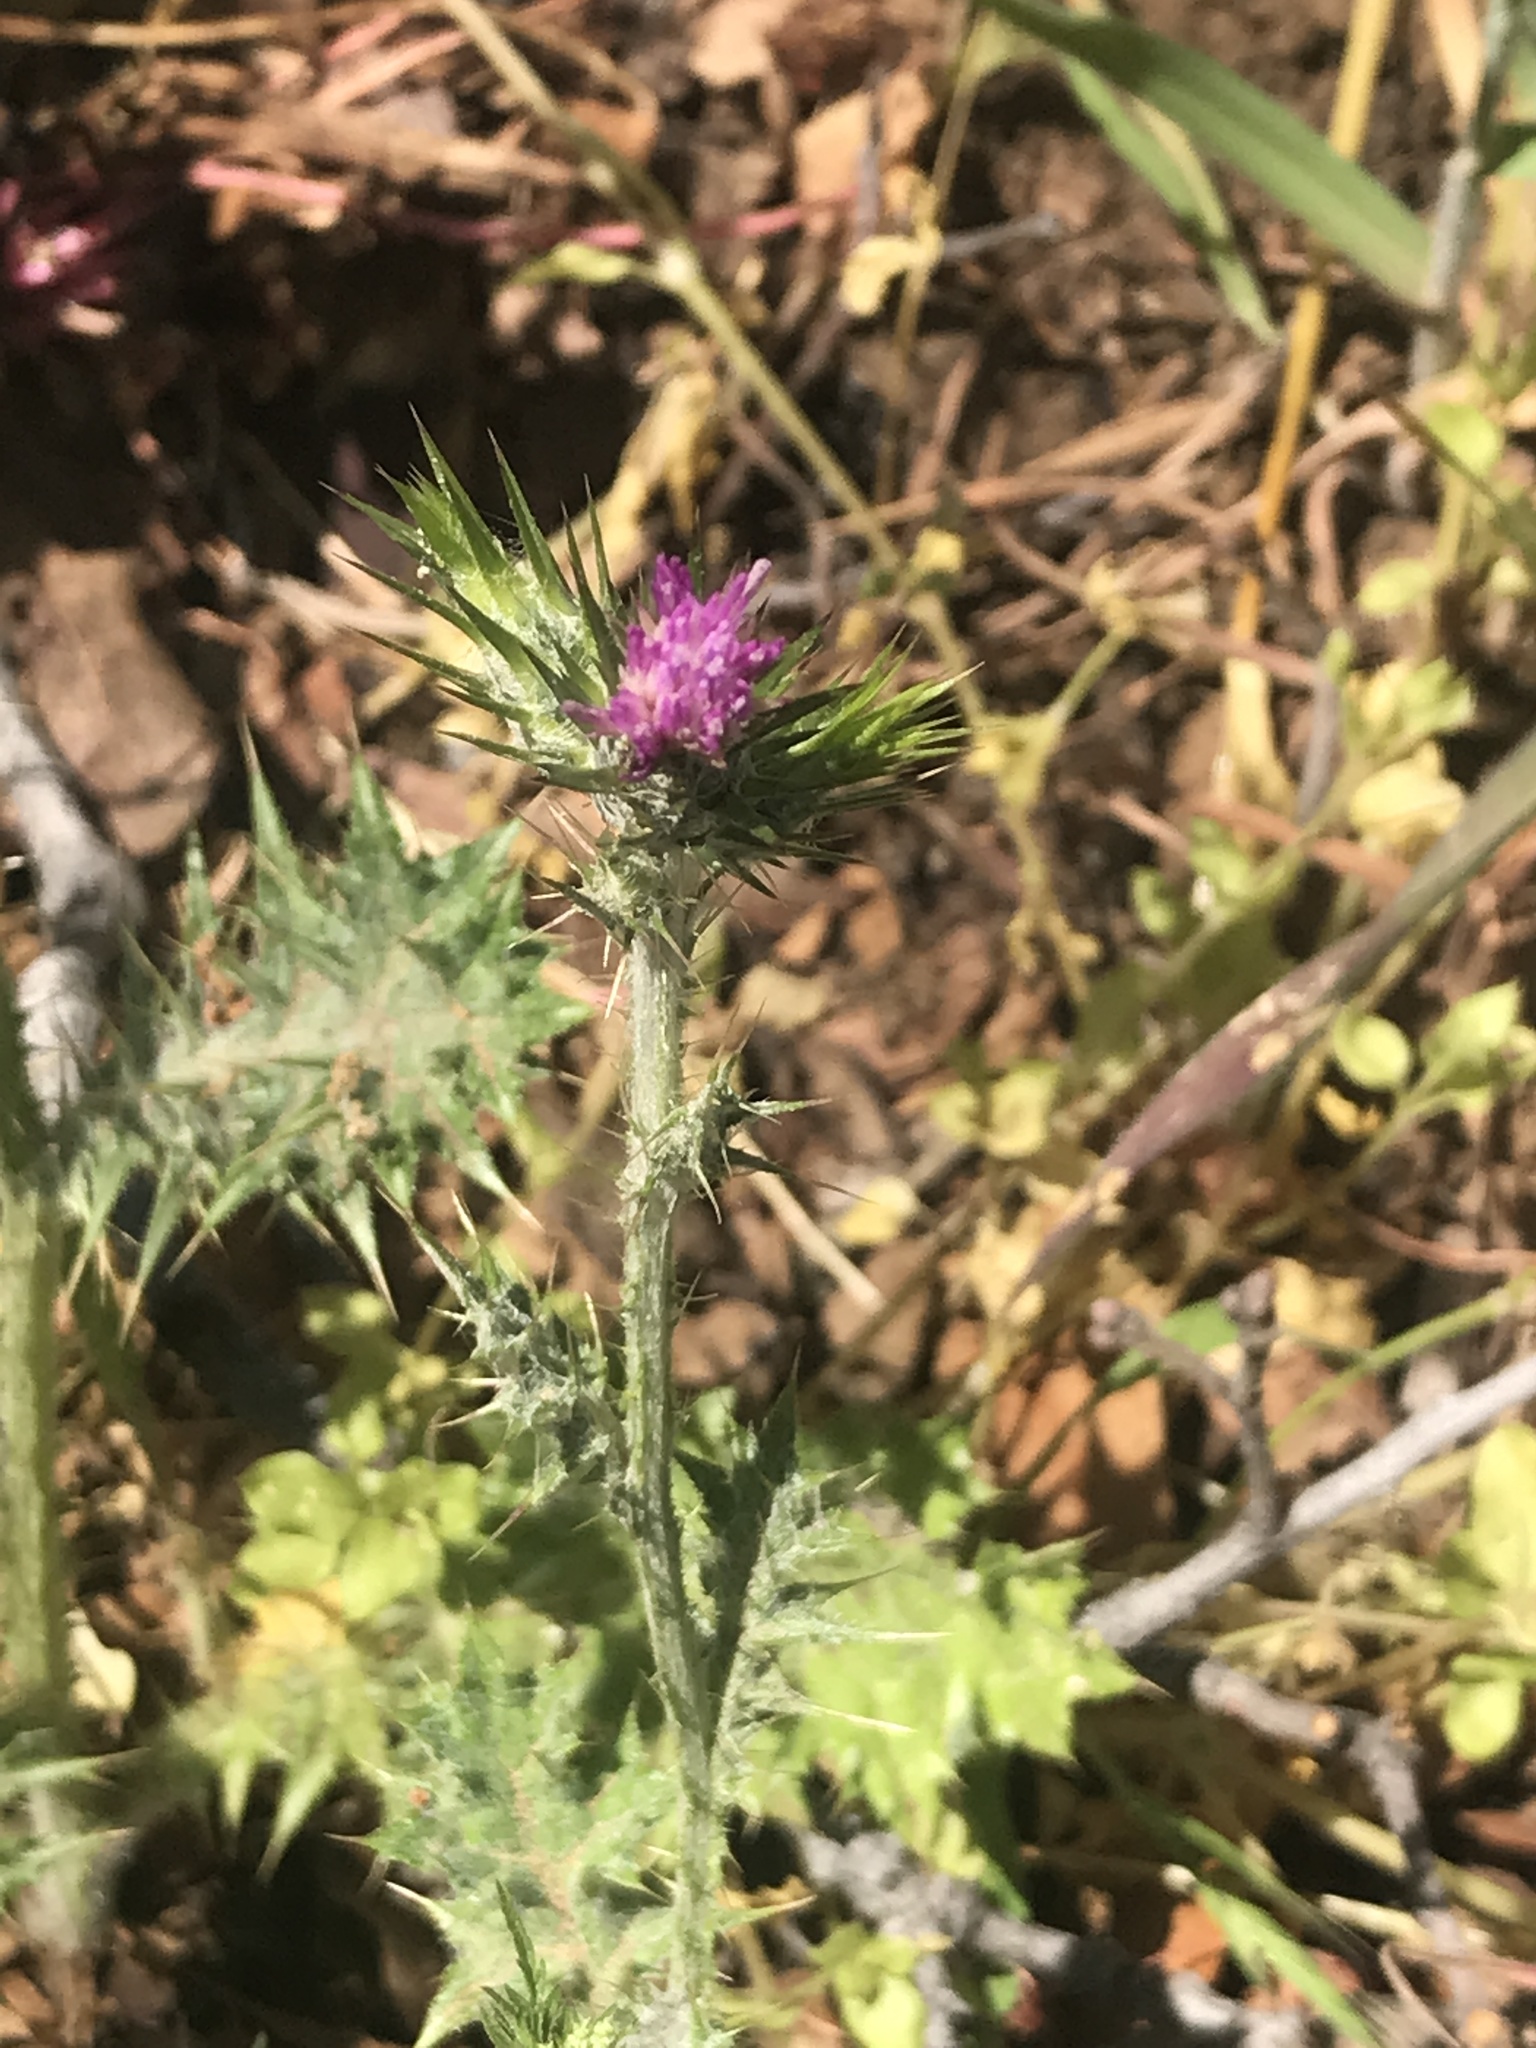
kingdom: Plantae
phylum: Tracheophyta
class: Magnoliopsida
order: Asterales
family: Asteraceae
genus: Carduus
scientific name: Carduus pycnocephalus
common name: Plymouth thistle
